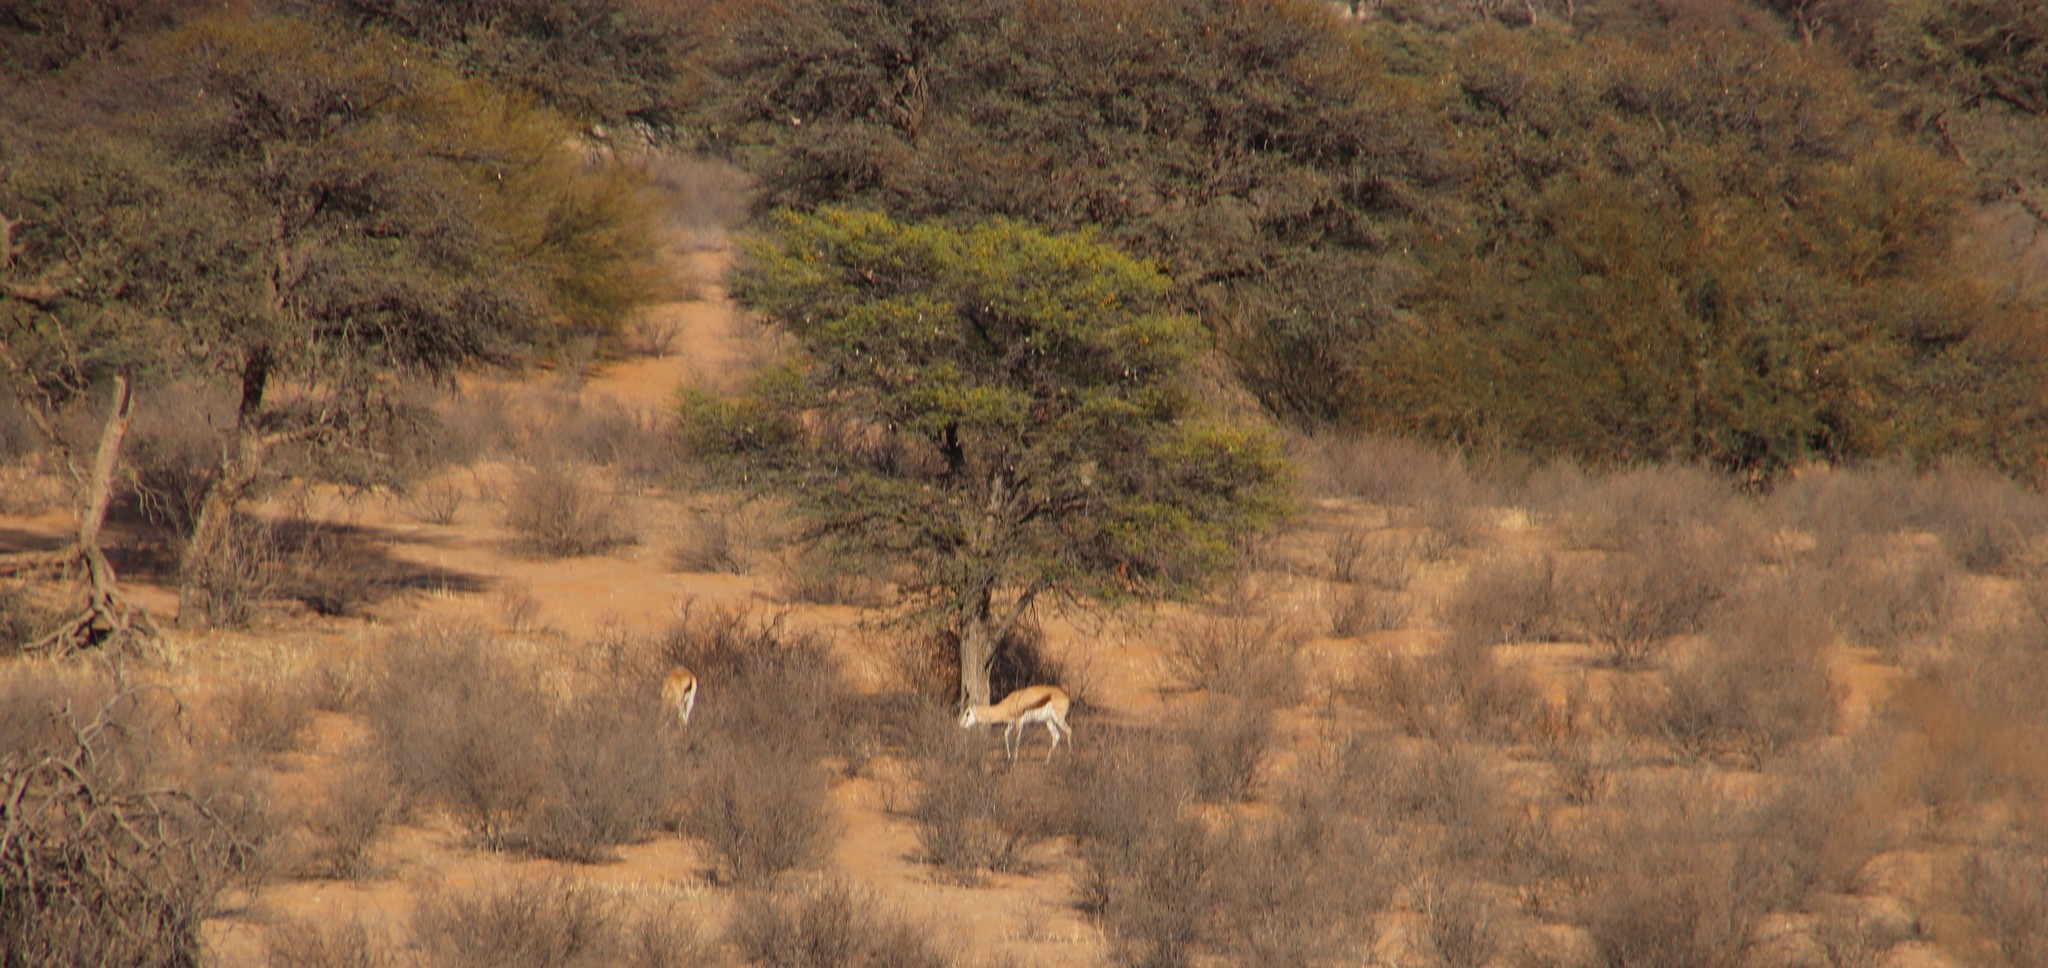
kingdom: Animalia
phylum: Chordata
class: Mammalia
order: Artiodactyla
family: Bovidae
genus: Antidorcas
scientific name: Antidorcas marsupialis
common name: Springbok
